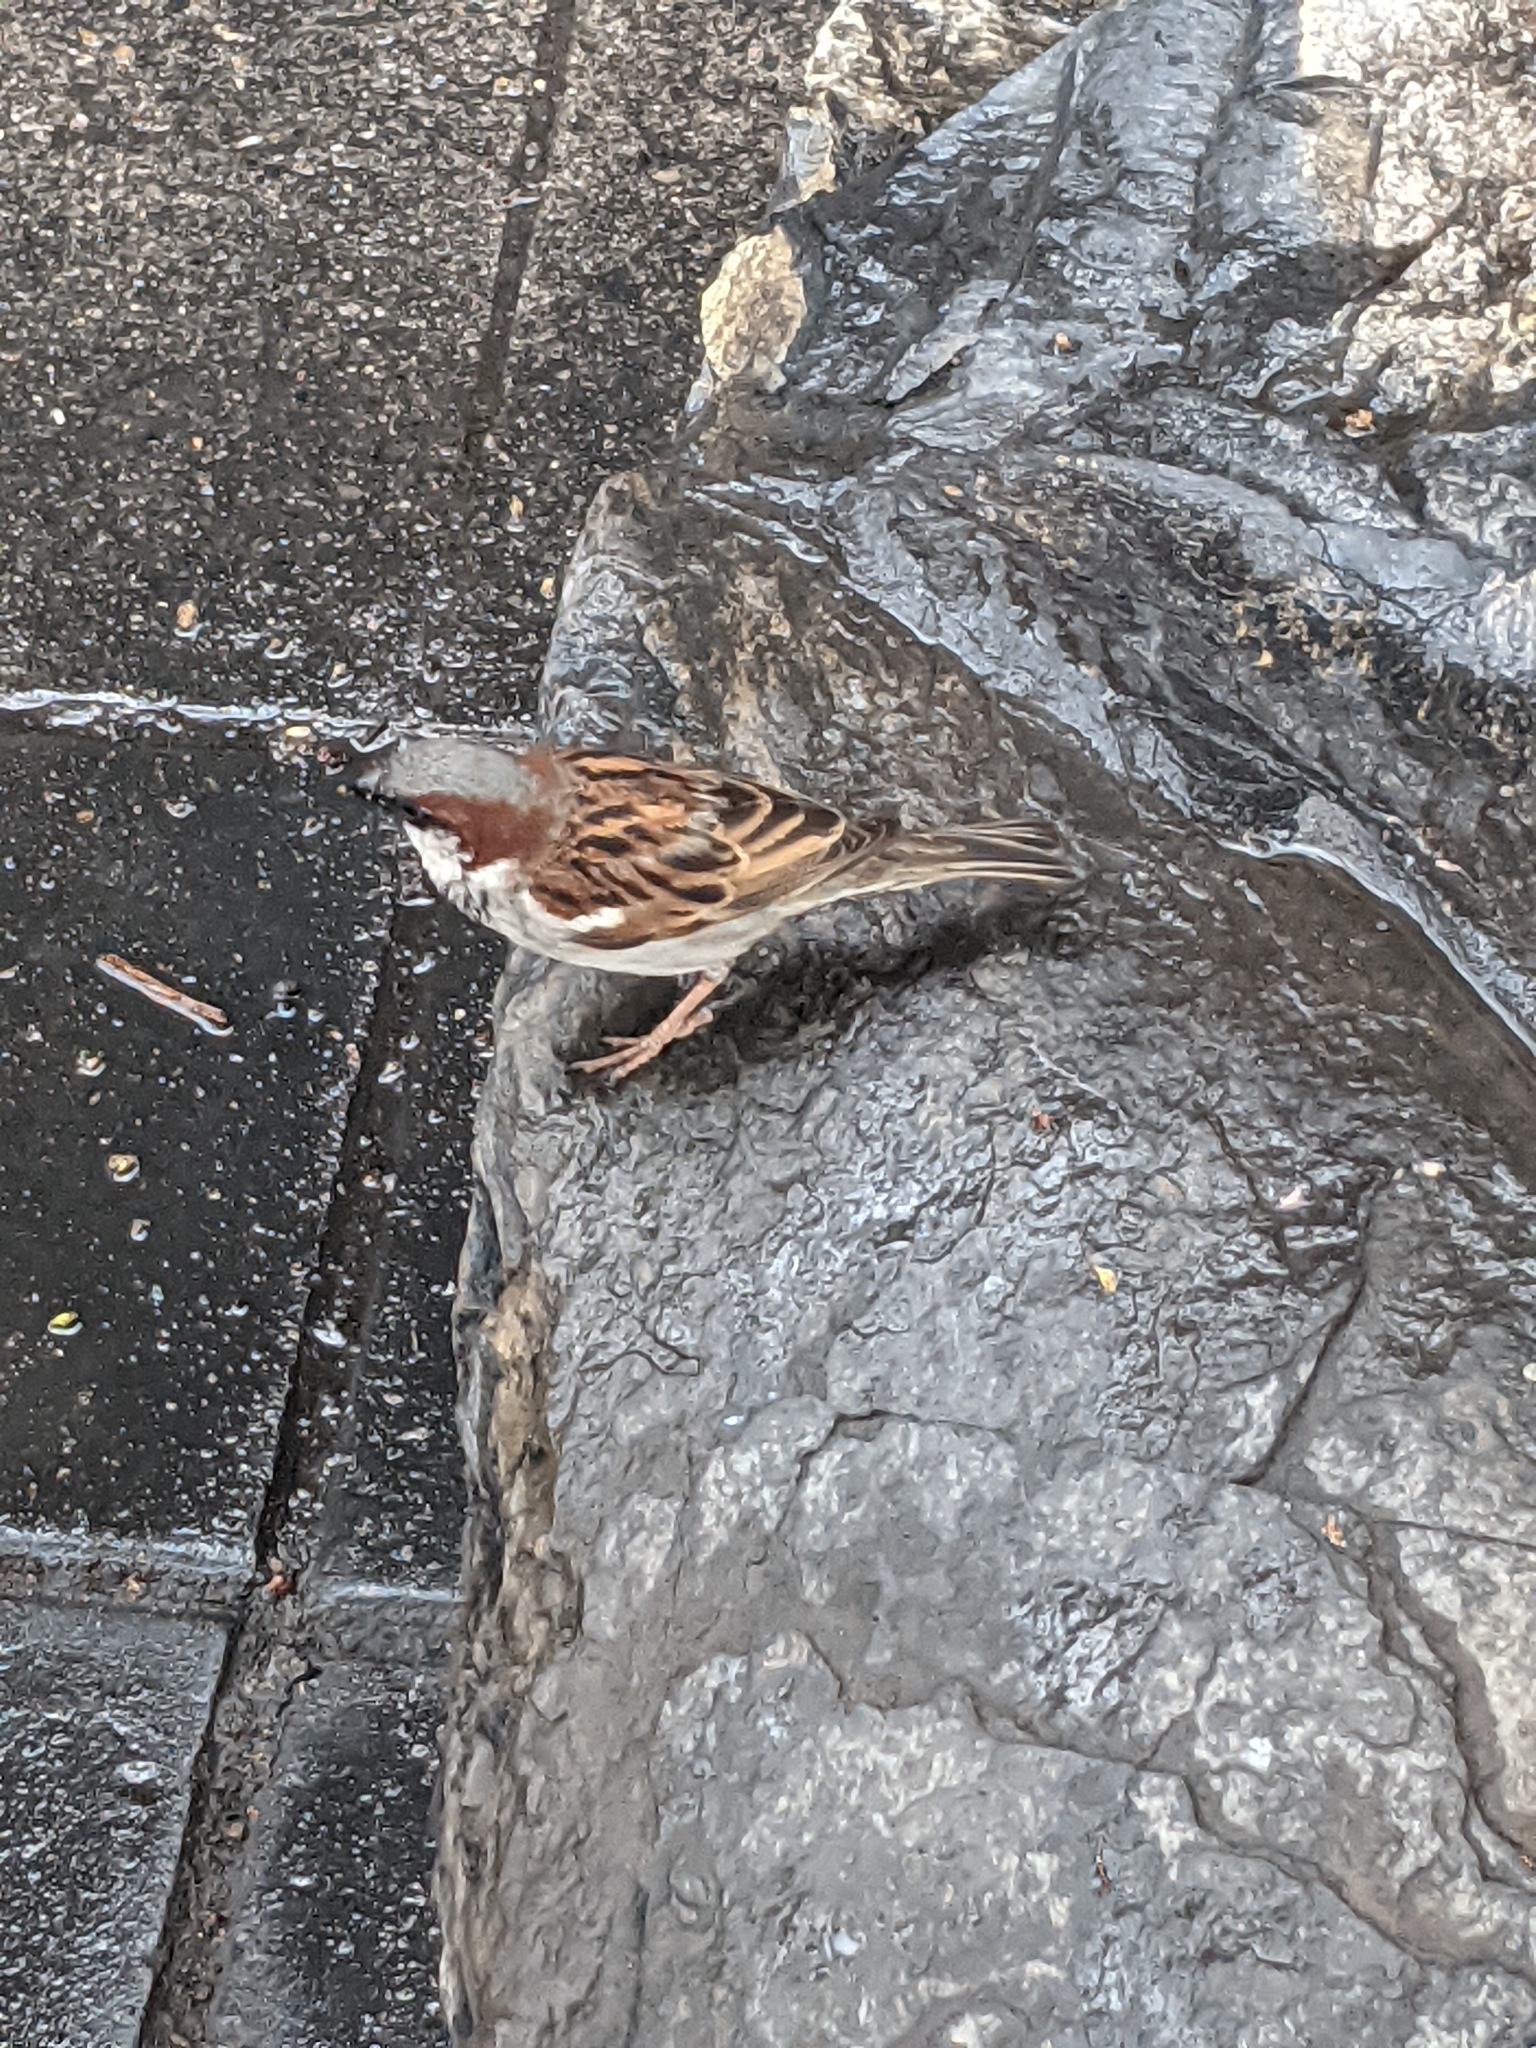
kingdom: Animalia
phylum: Chordata
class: Aves
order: Passeriformes
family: Passeridae
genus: Passer
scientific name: Passer domesticus
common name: House sparrow
